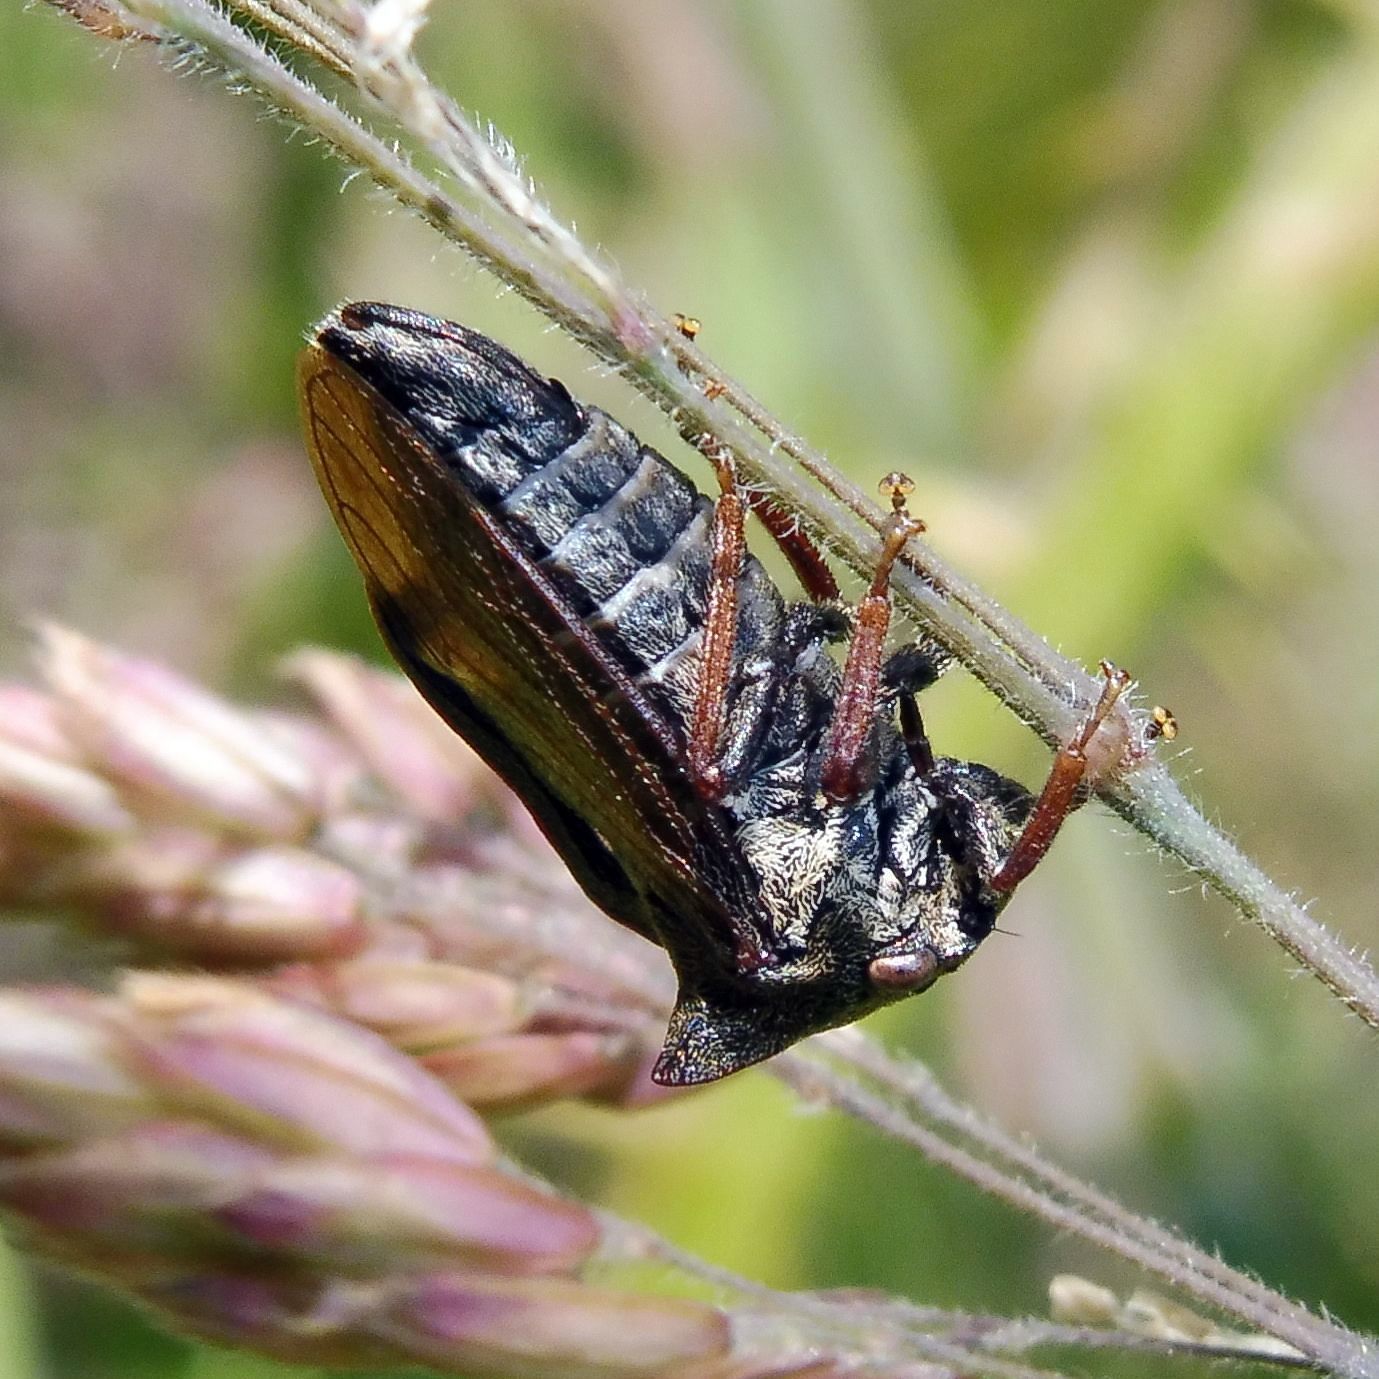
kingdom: Animalia
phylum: Arthropoda
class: Insecta
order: Hemiptera
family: Membracidae
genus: Centrotus
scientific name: Centrotus cornuta
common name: Treehopper
